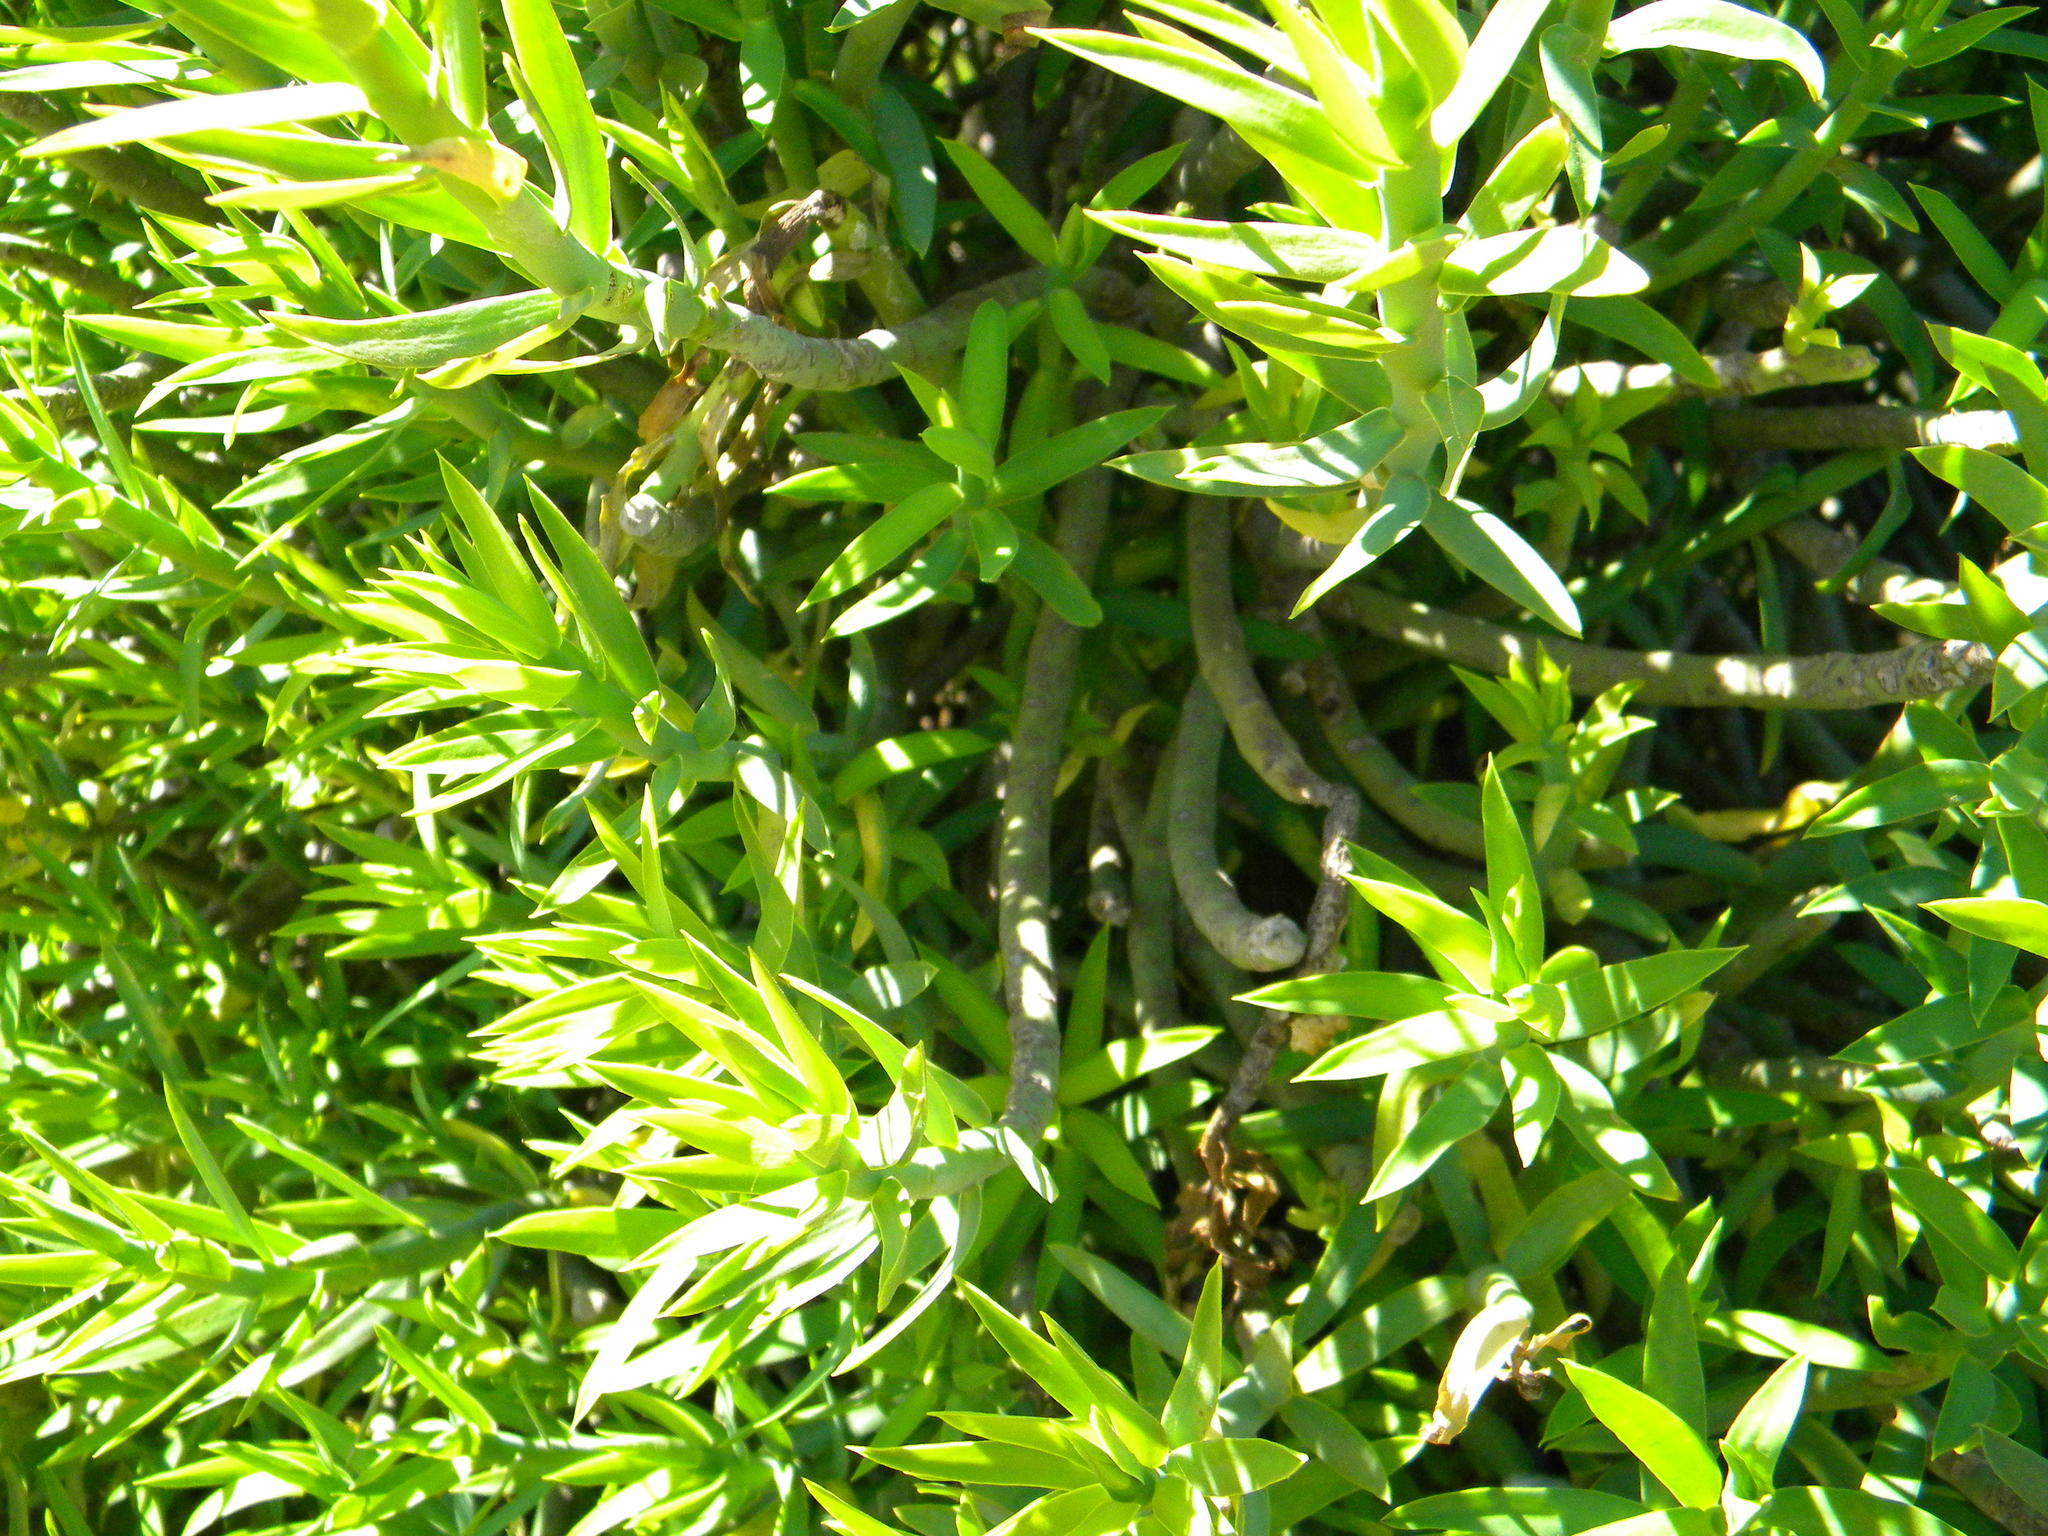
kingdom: Plantae
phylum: Tracheophyta
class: Magnoliopsida
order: Malpighiales
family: Euphorbiaceae
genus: Euphorbia
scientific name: Euphorbia mauritanica
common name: Jackal's-food
